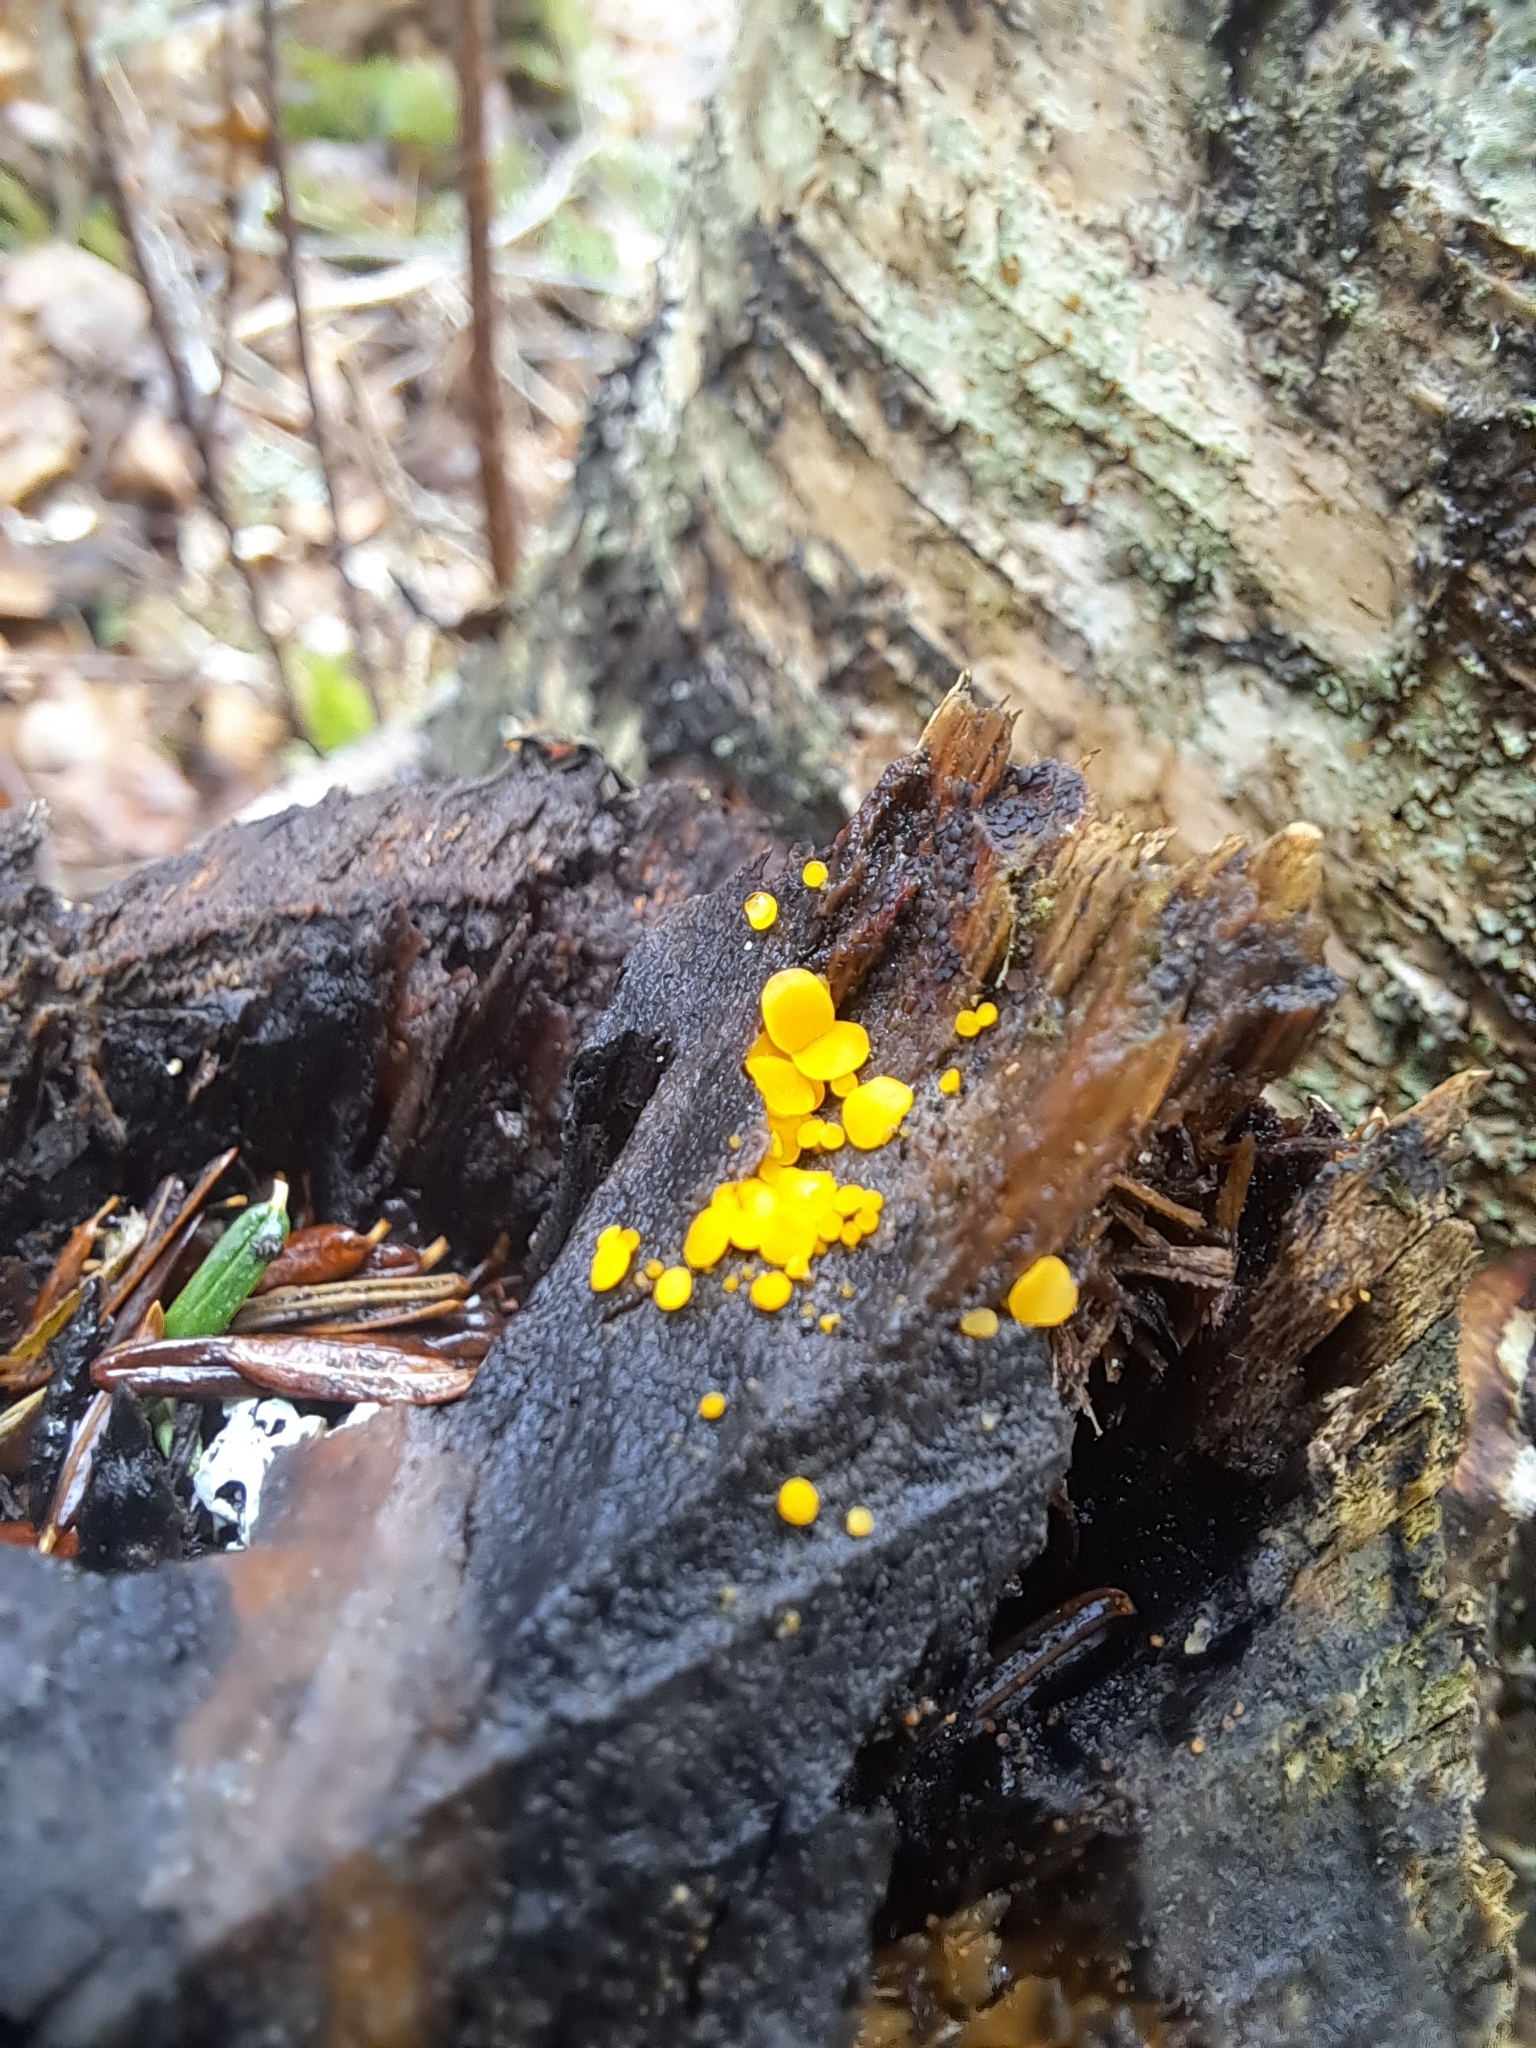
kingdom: Fungi
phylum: Ascomycota
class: Leotiomycetes
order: Helotiales
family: Pezizellaceae
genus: Calycina
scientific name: Calycina citrina
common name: Yellow fairy cups
